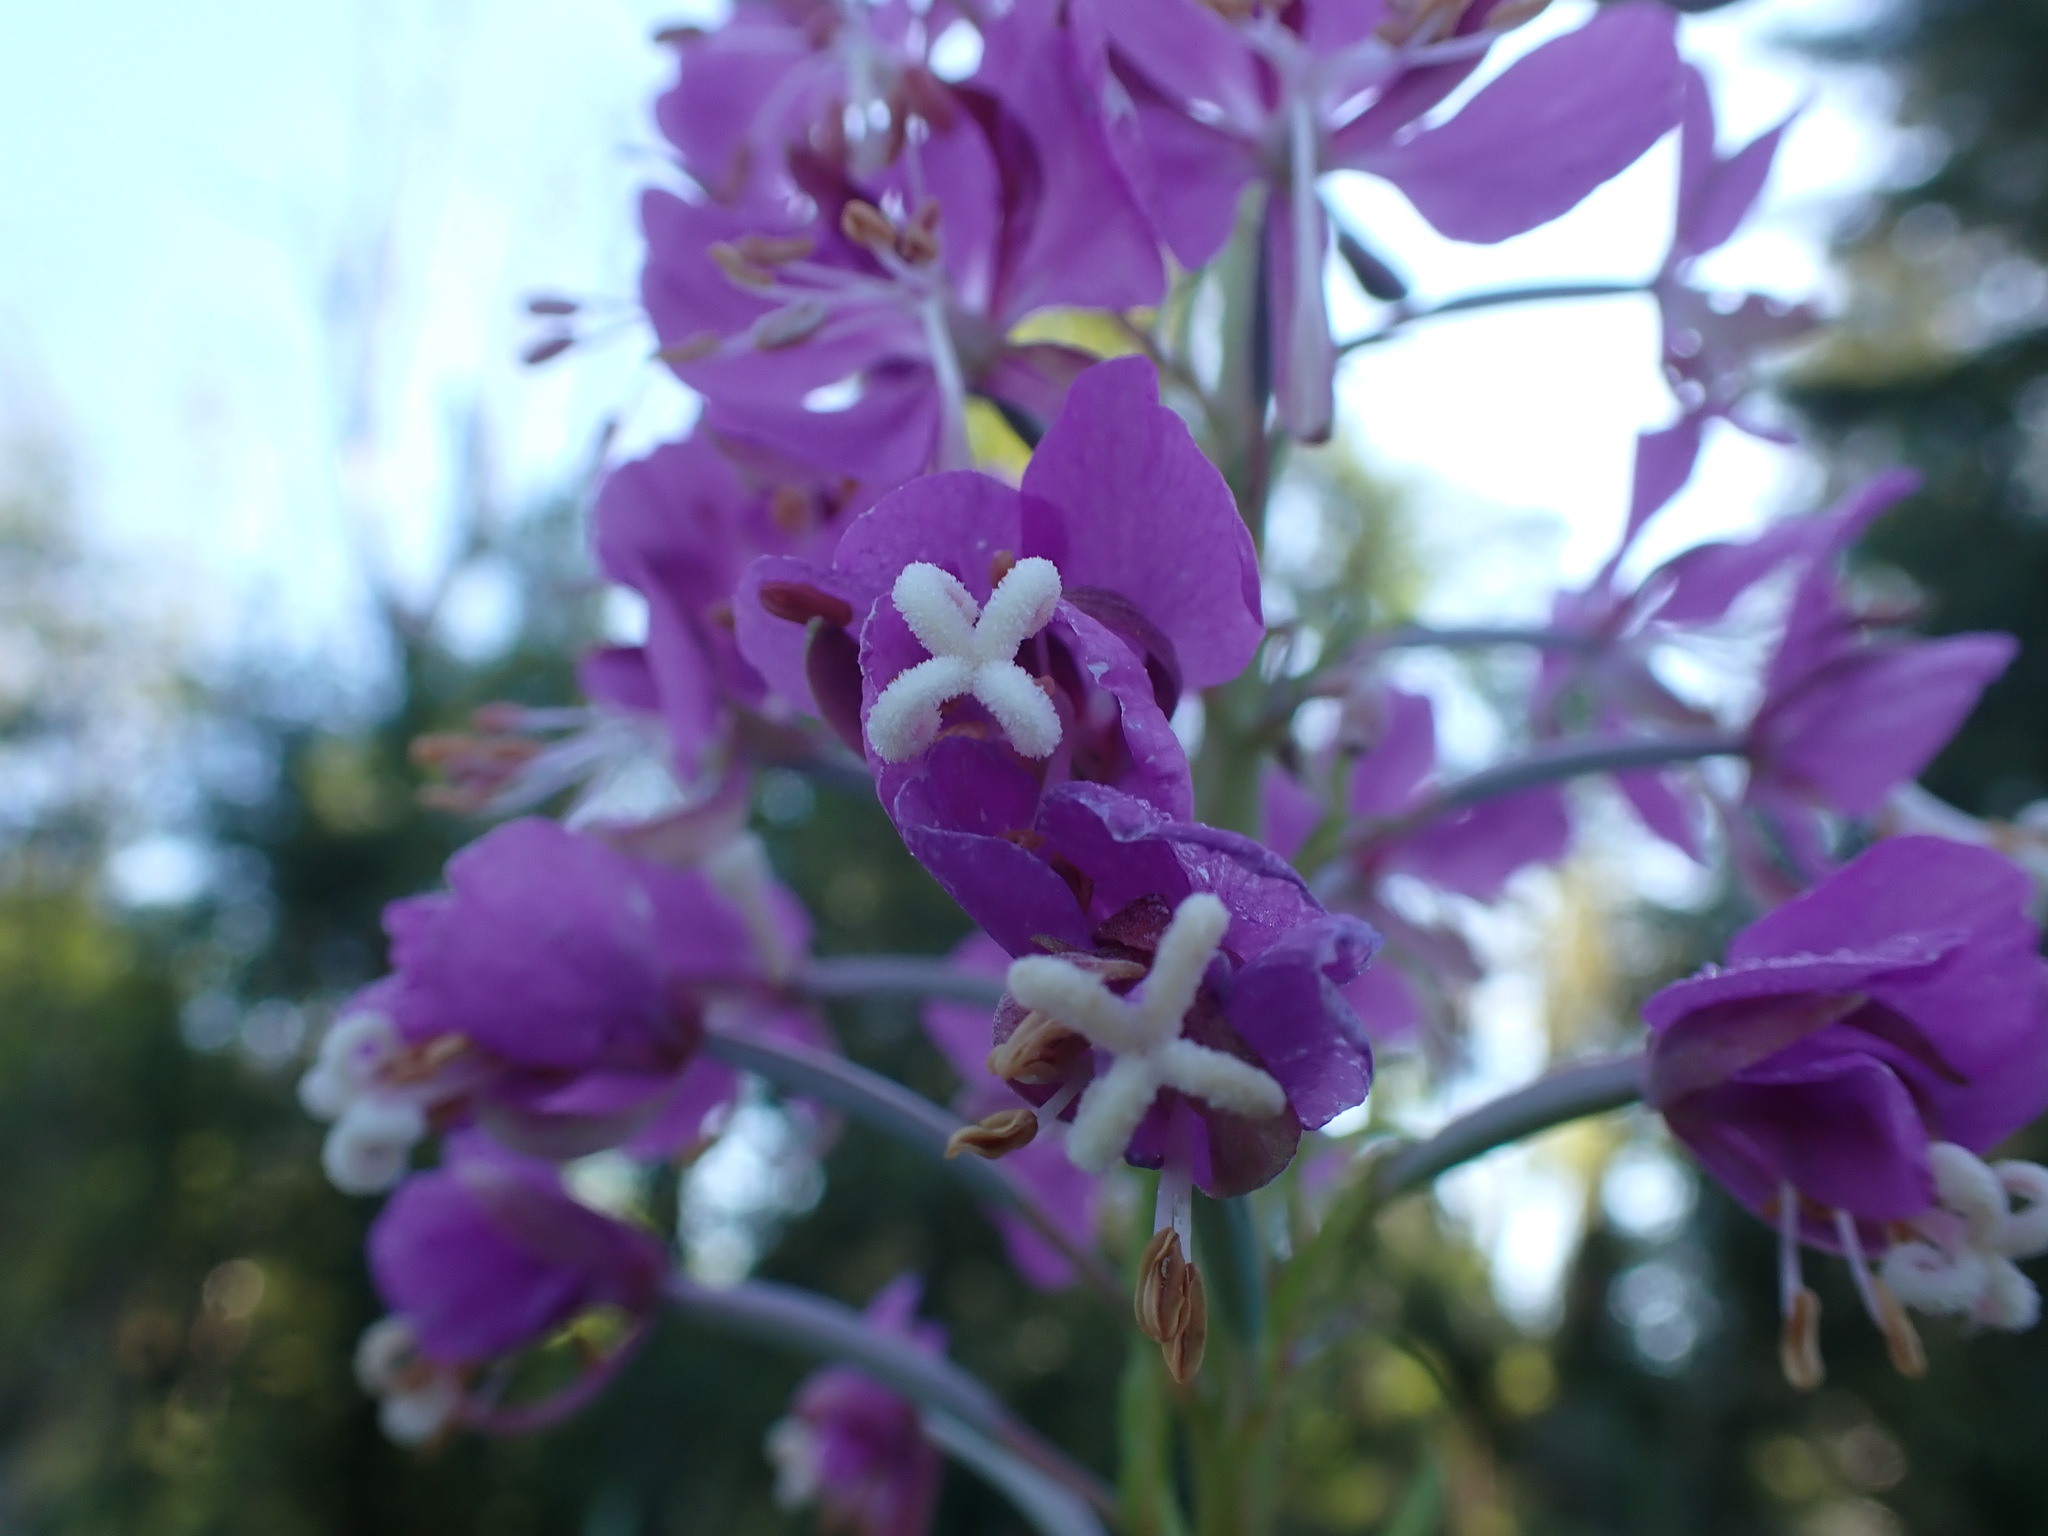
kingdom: Plantae
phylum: Tracheophyta
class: Magnoliopsida
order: Myrtales
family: Onagraceae
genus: Chamaenerion
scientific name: Chamaenerion angustifolium
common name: Fireweed
